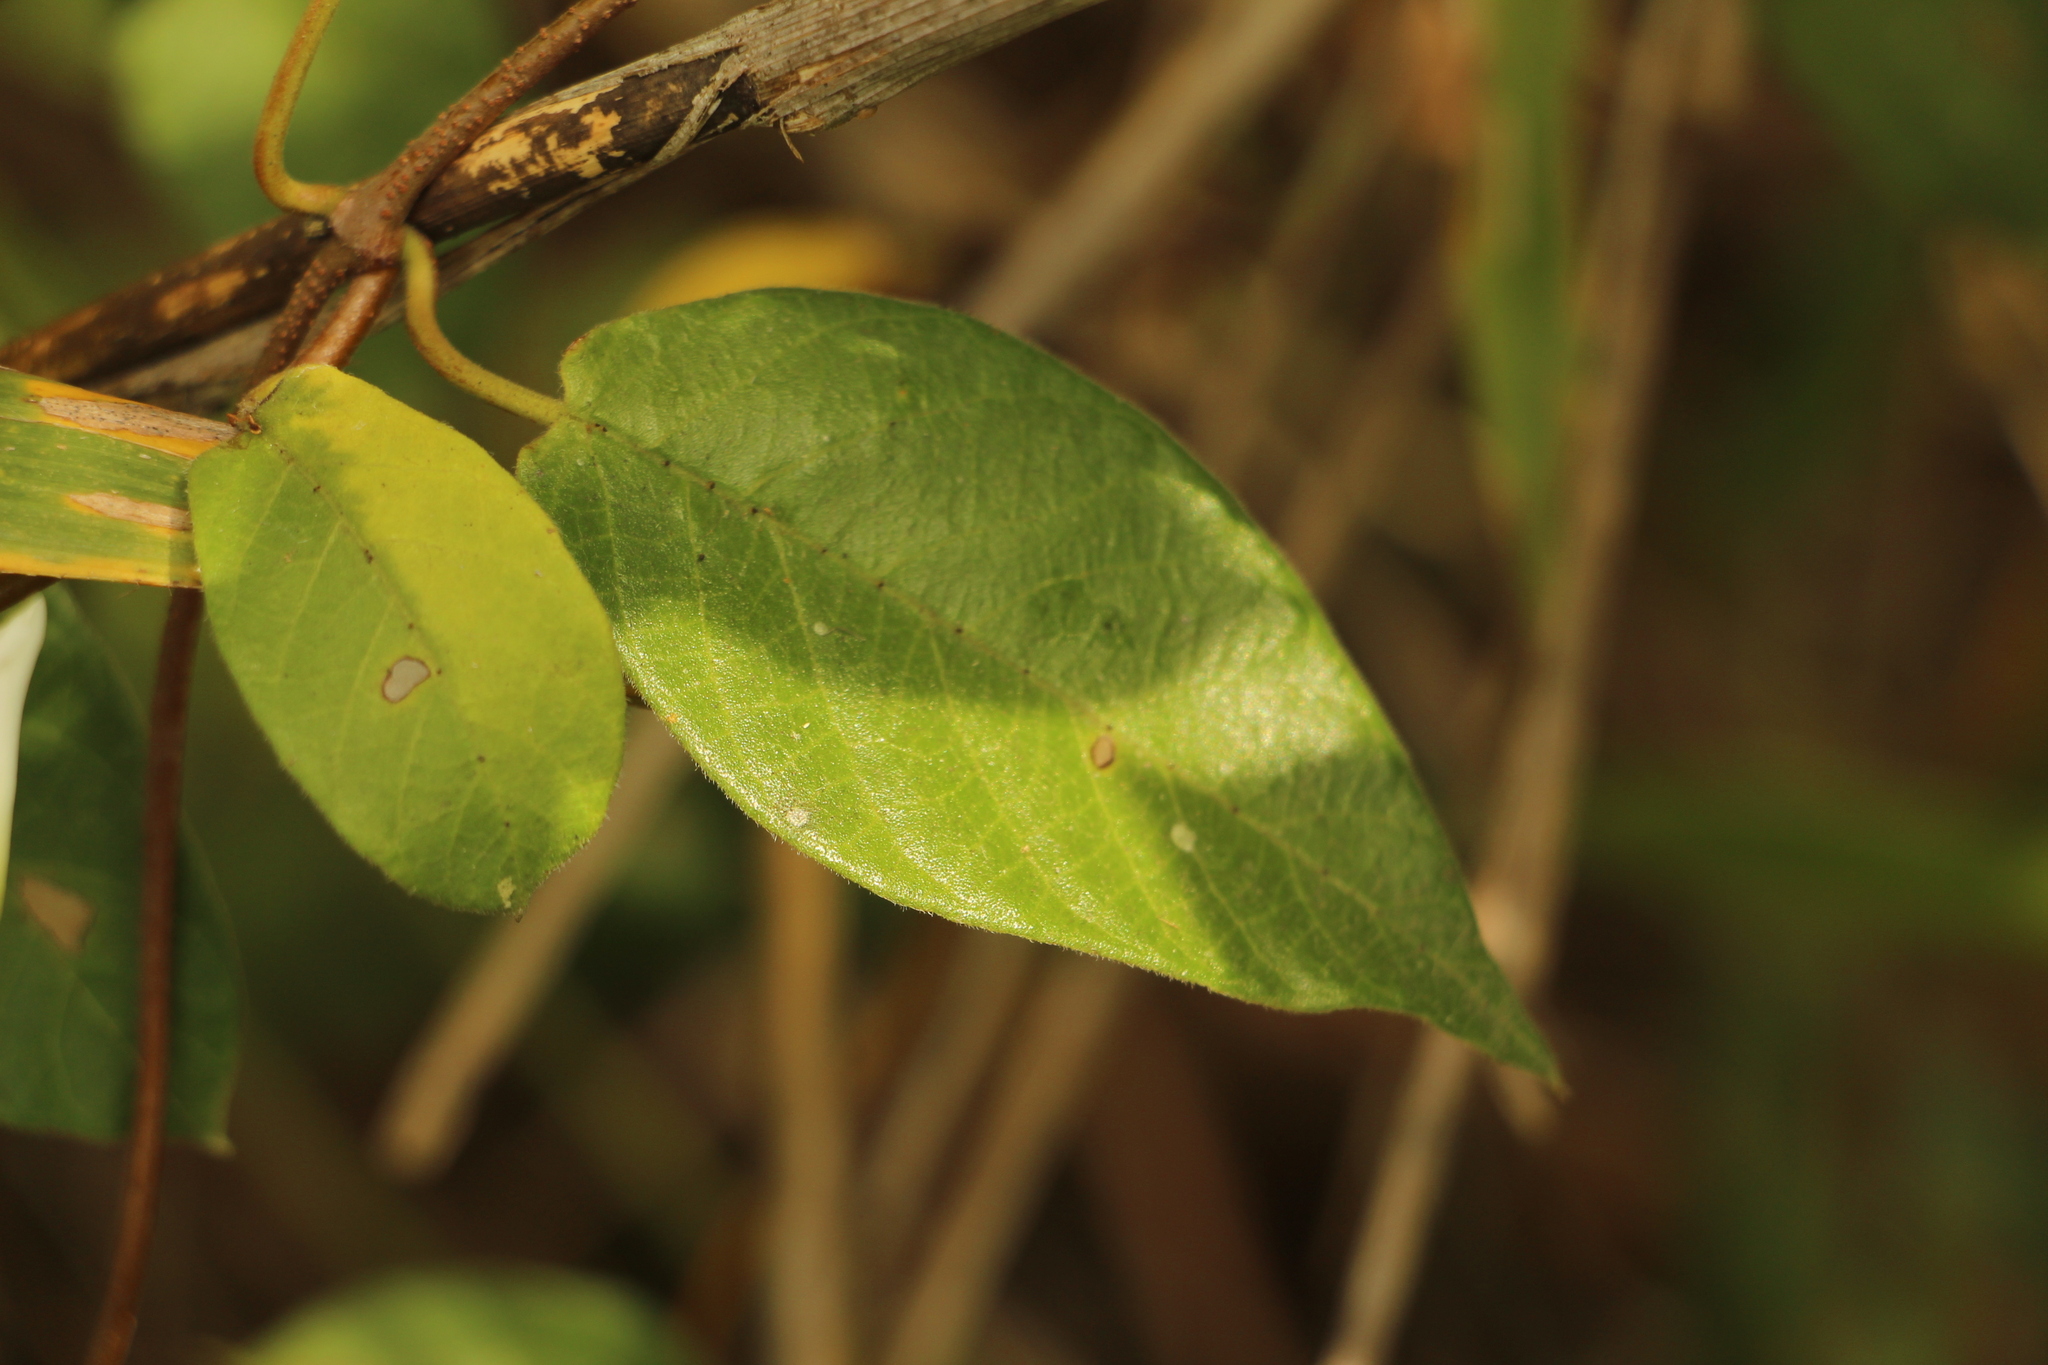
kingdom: Plantae
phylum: Tracheophyta
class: Magnoliopsida
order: Gentianales
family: Apocynaceae
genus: Mandevilla
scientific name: Mandevilla xerophytica
